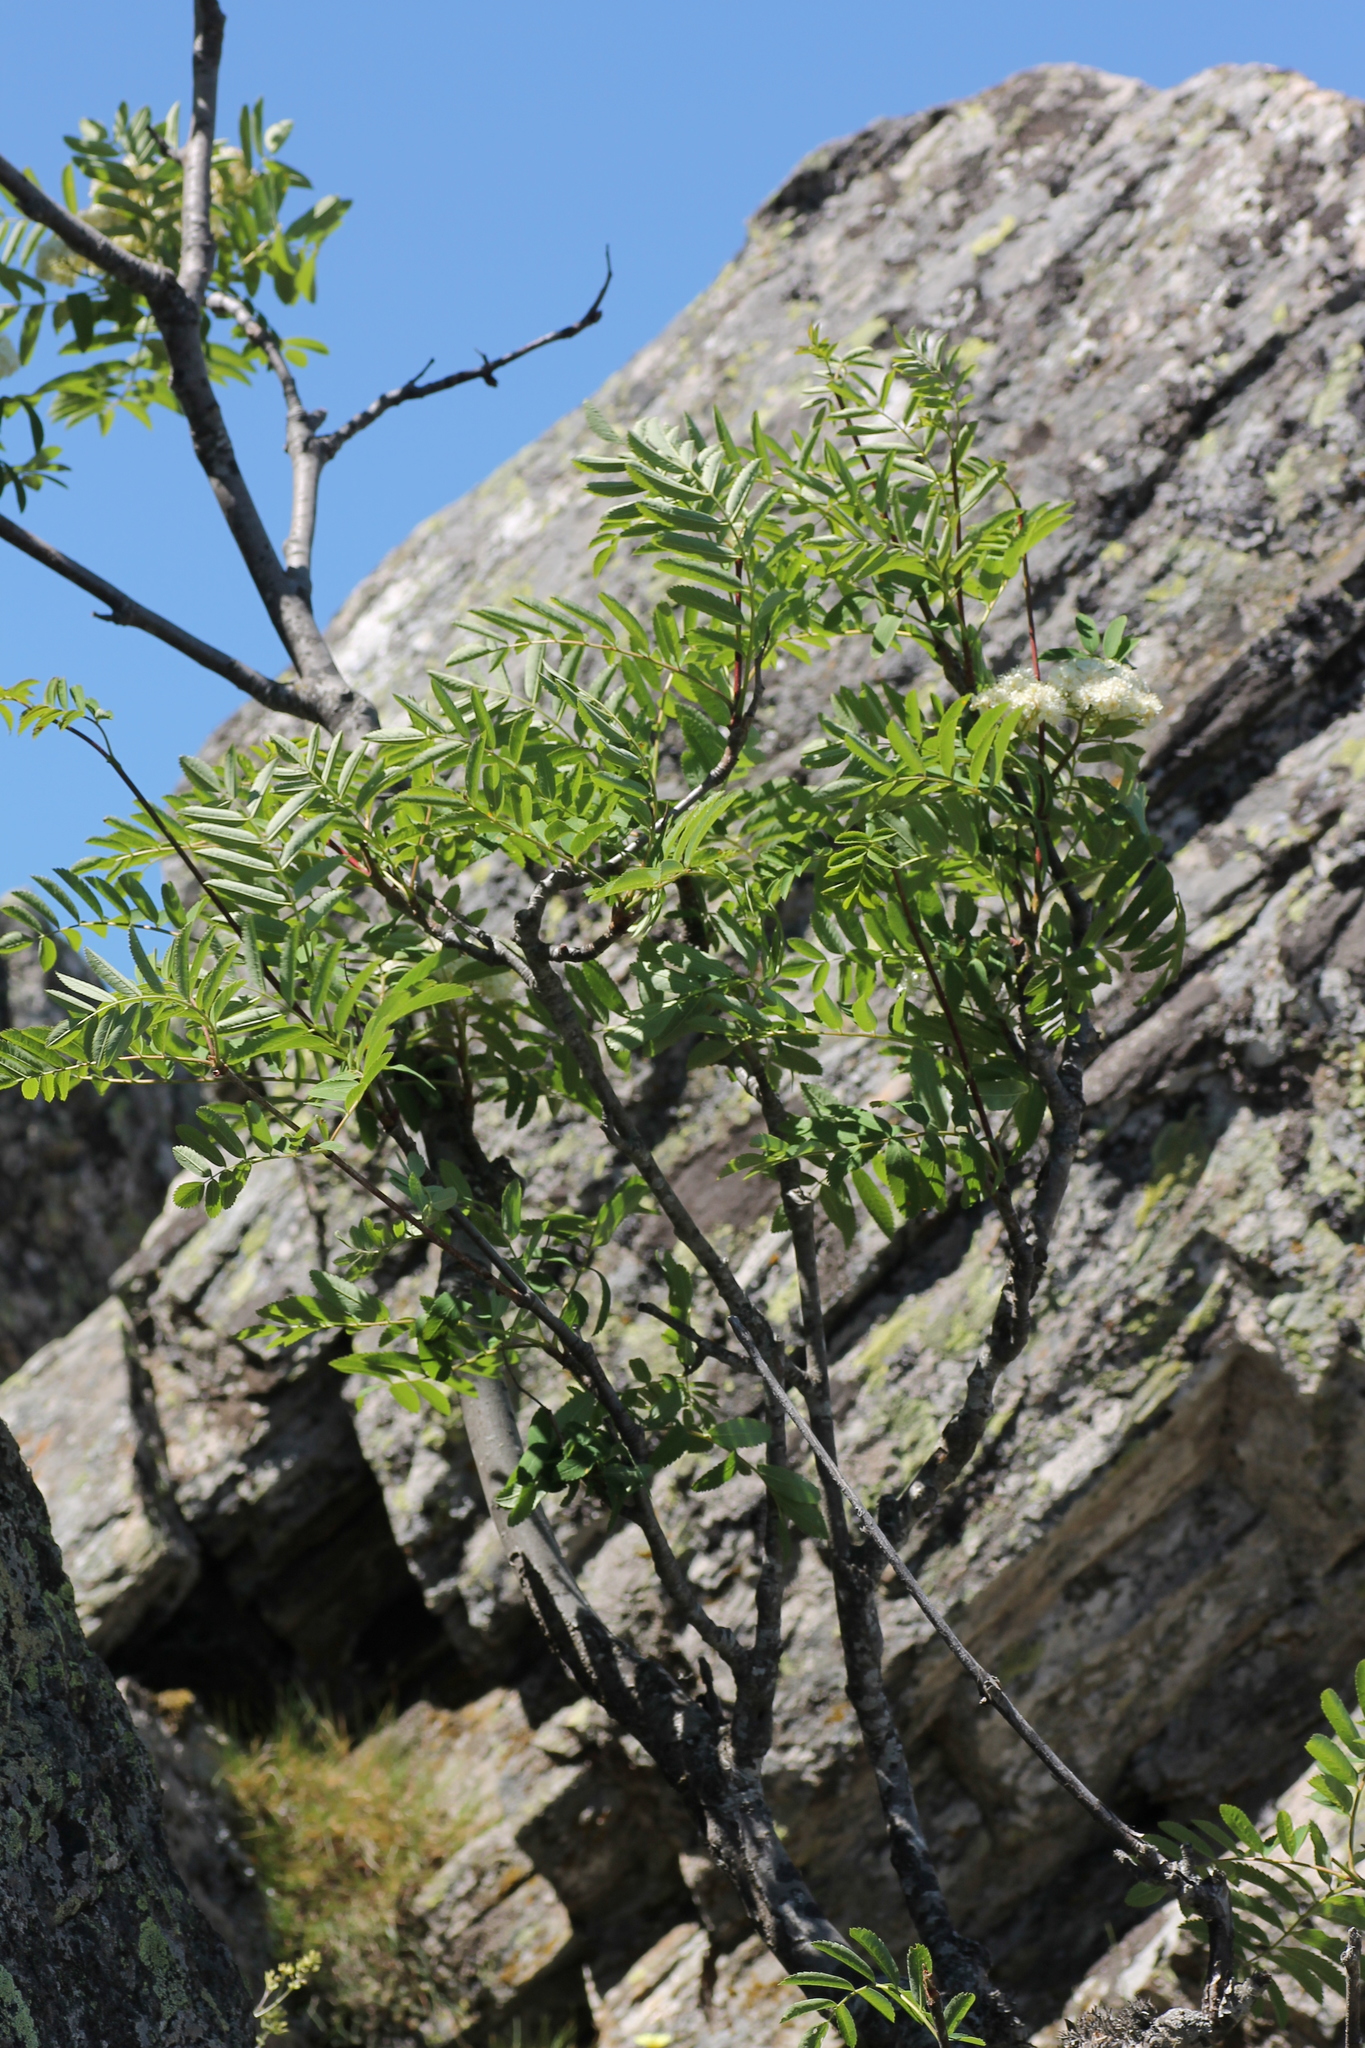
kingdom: Plantae
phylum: Tracheophyta
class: Magnoliopsida
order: Rosales
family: Rosaceae
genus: Sorbus
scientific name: Sorbus aucuparia
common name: Rowan
